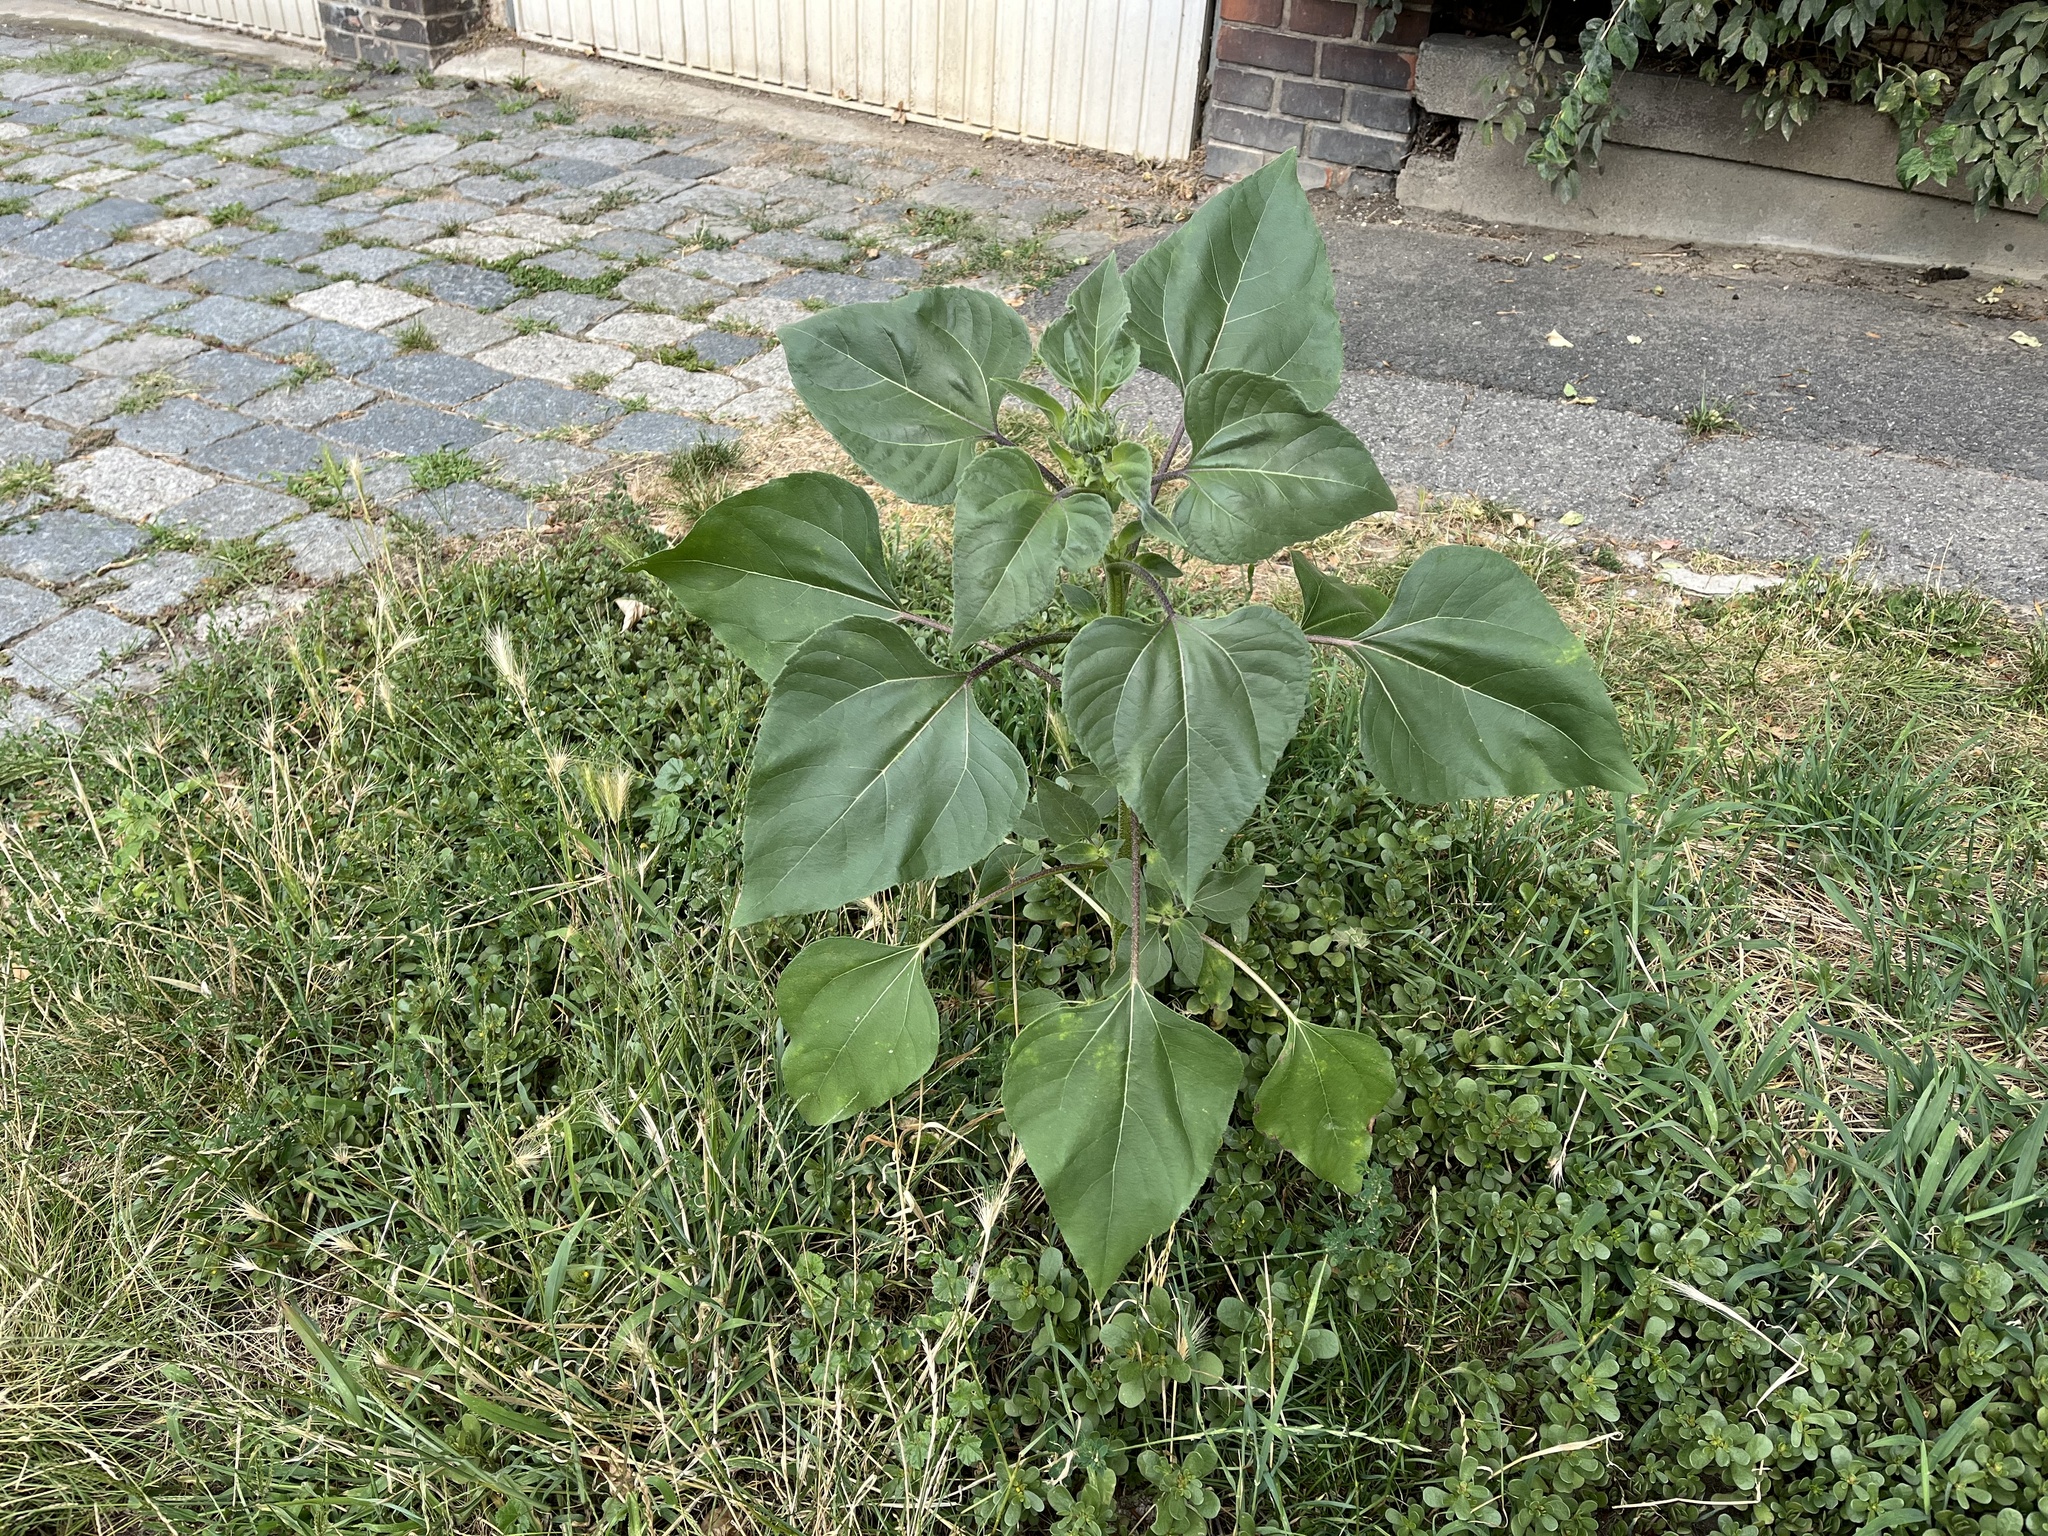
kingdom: Plantae
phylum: Tracheophyta
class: Magnoliopsida
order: Asterales
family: Asteraceae
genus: Helianthus
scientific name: Helianthus annuus
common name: Sunflower
